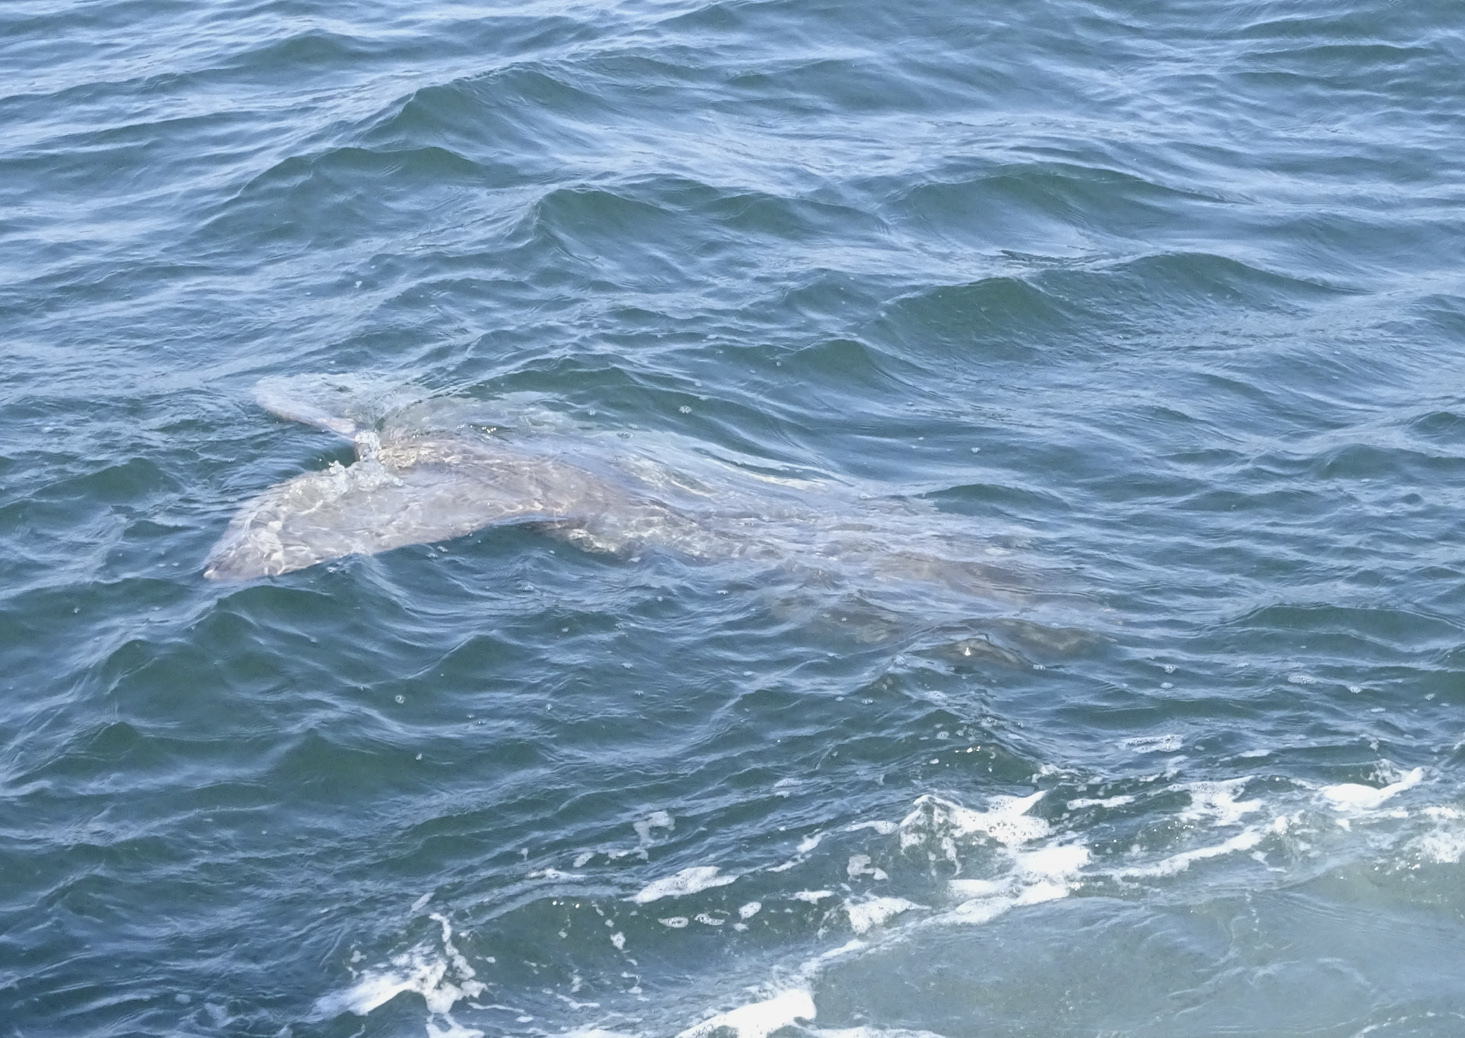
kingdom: Animalia
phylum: Chordata
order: Tetraodontiformes
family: Molidae
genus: Mola
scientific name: Mola mola
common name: Ocean sunfish
